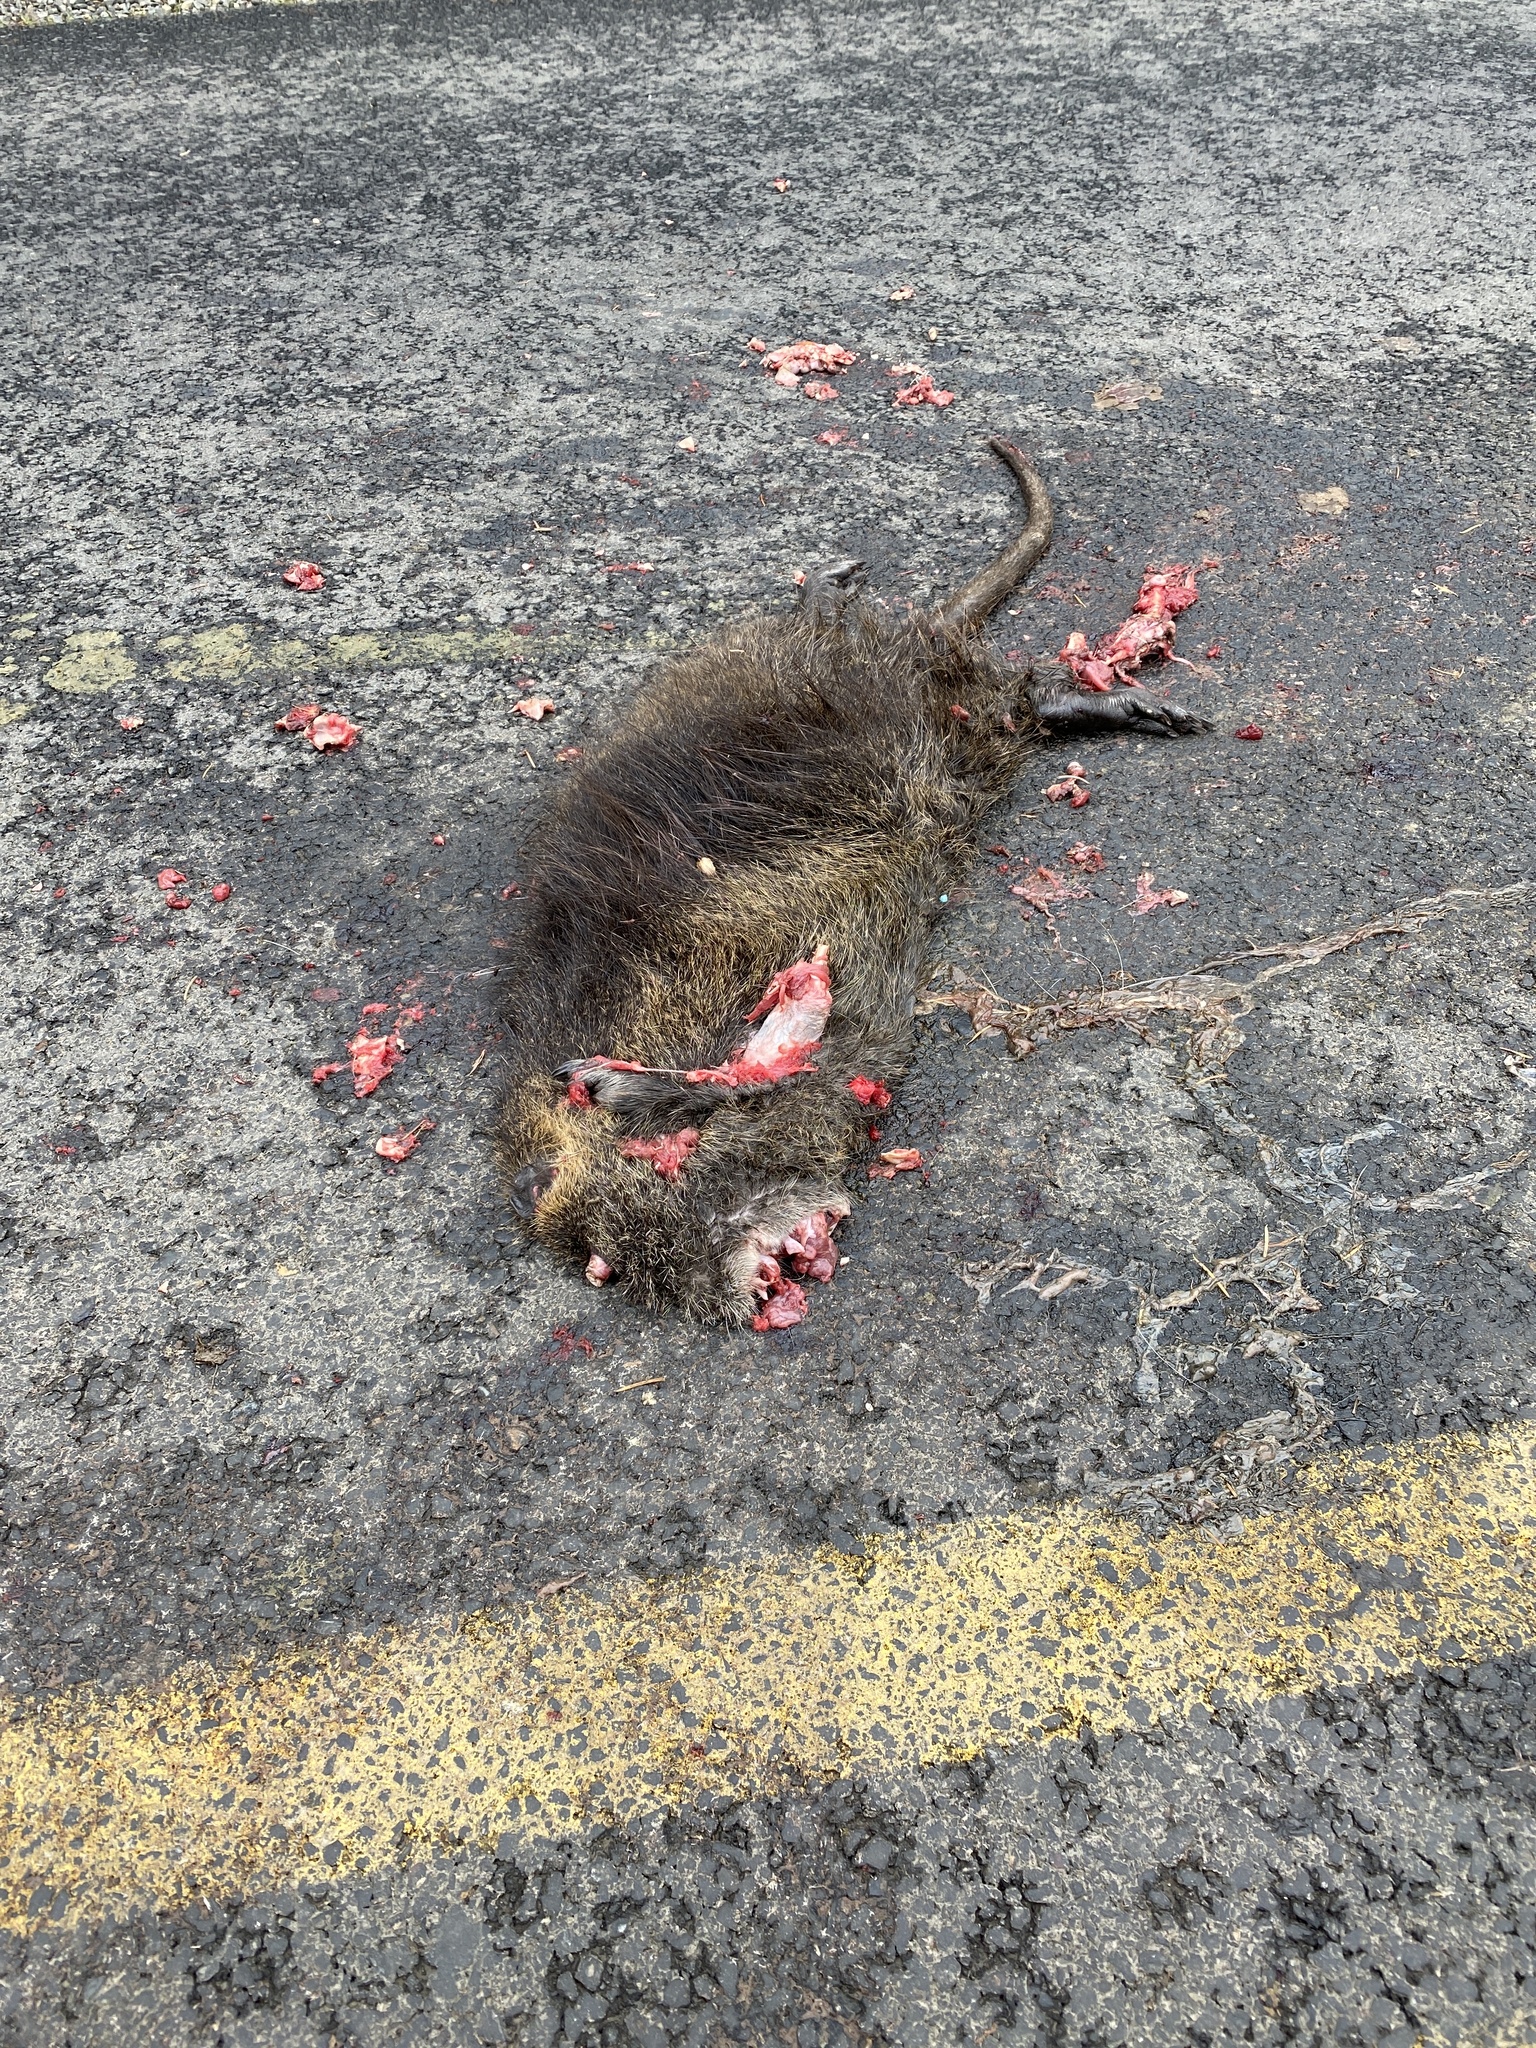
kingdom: Animalia
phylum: Chordata
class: Mammalia
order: Rodentia
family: Myocastoridae
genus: Myocastor
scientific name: Myocastor coypus
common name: Coypu
